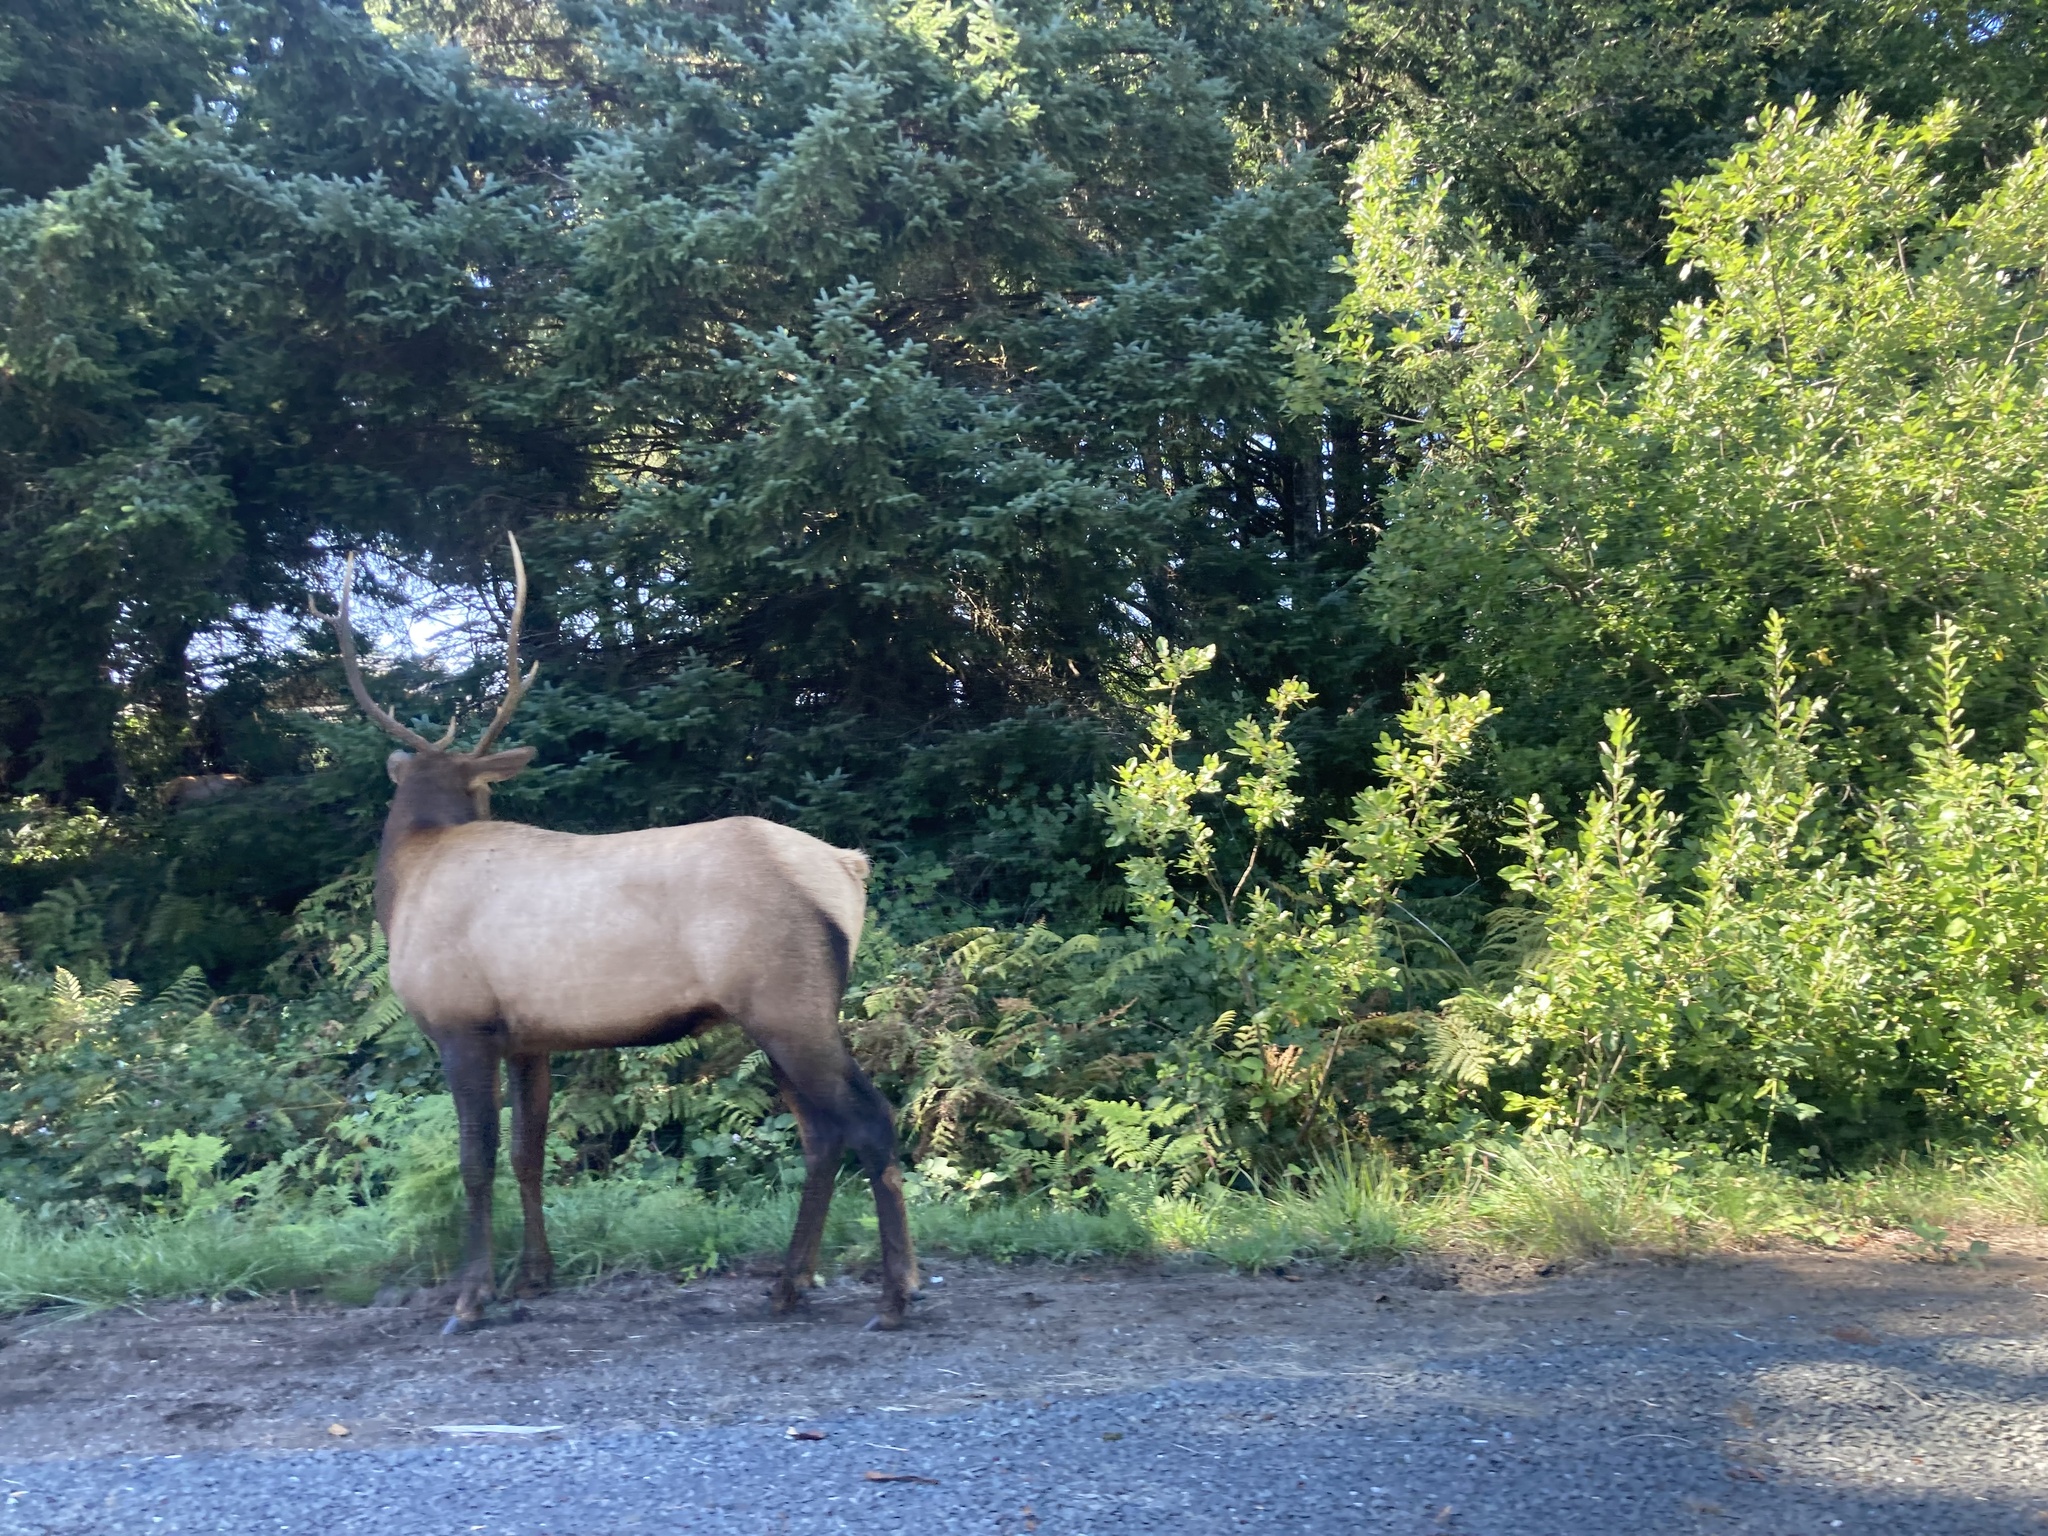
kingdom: Animalia
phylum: Chordata
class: Mammalia
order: Artiodactyla
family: Cervidae
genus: Cervus
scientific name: Cervus elaphus
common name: Red deer
